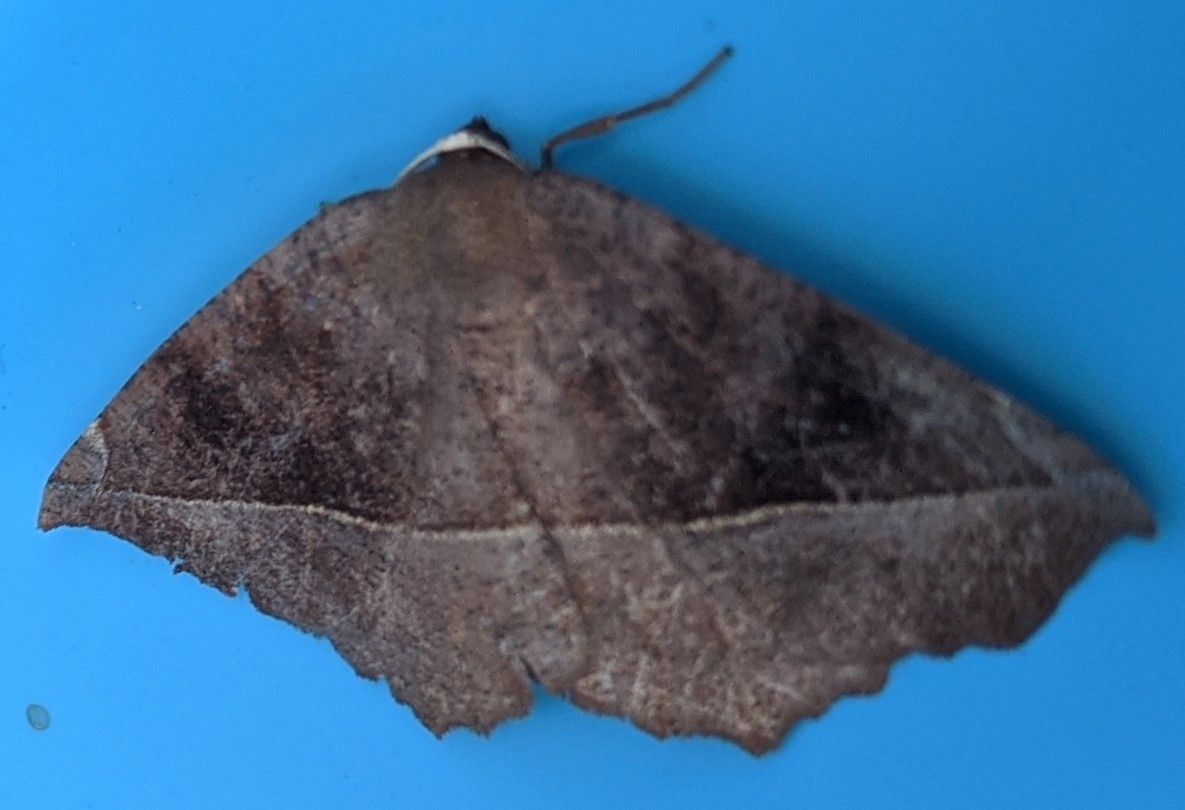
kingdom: Animalia
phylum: Arthropoda
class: Insecta
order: Lepidoptera
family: Geometridae
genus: Eutrapela
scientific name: Eutrapela clemataria
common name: Curved-toothed geometer
